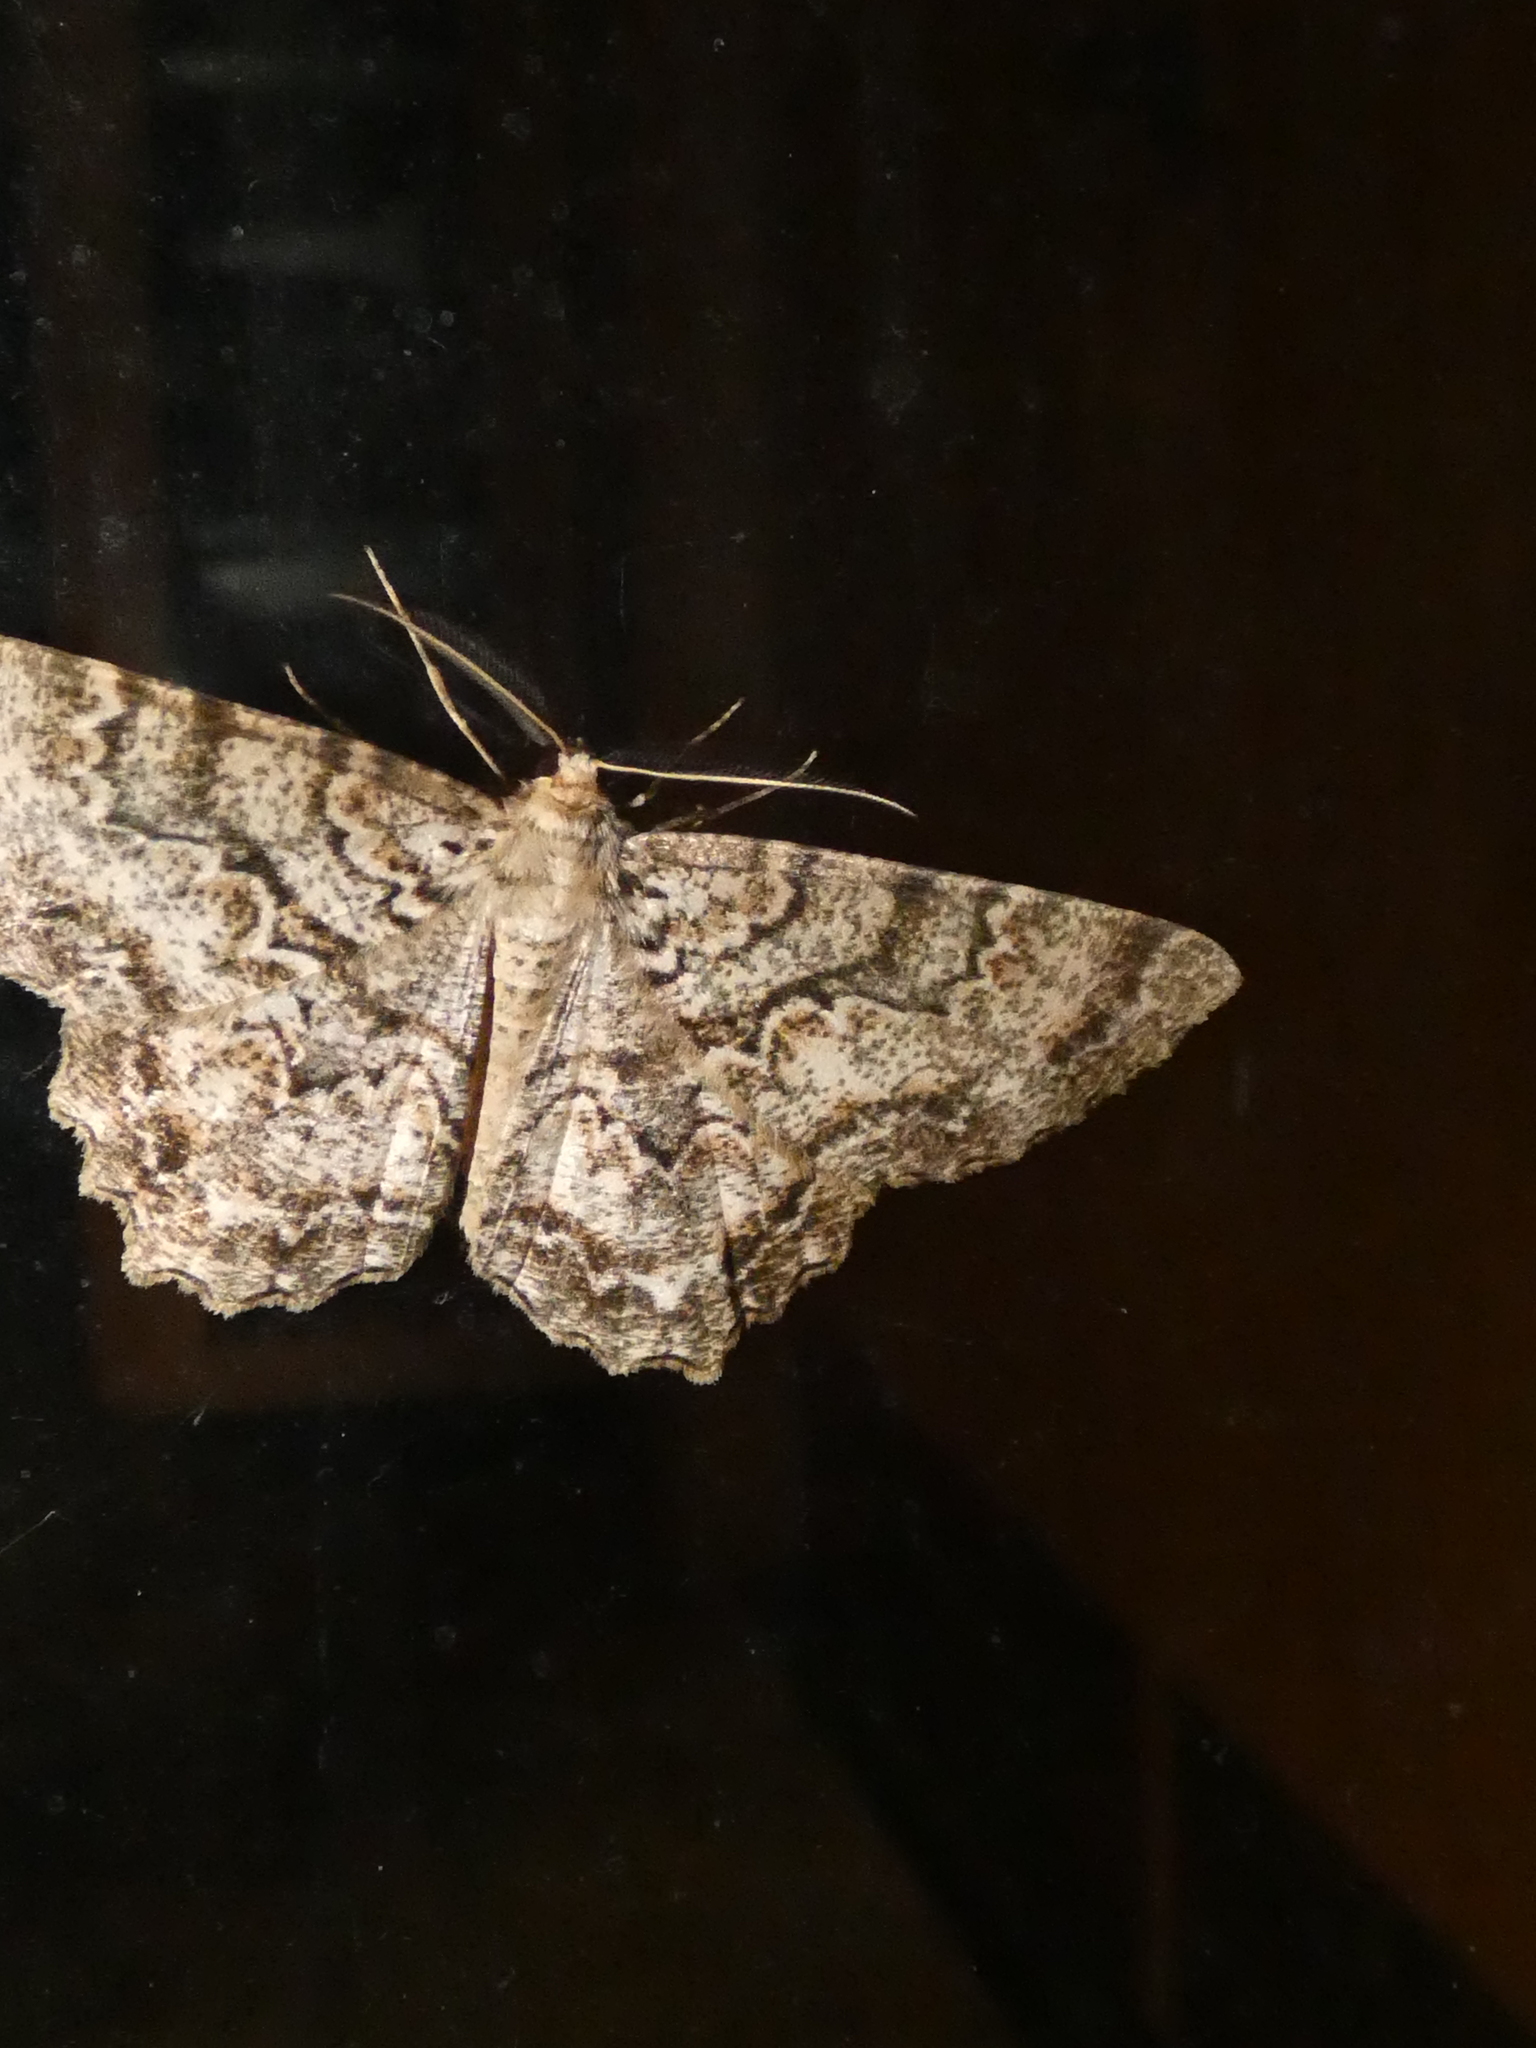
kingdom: Animalia
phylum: Arthropoda
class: Insecta
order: Lepidoptera
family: Geometridae
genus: Epimecis
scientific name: Epimecis hortaria
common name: Tulip-tree beauty
